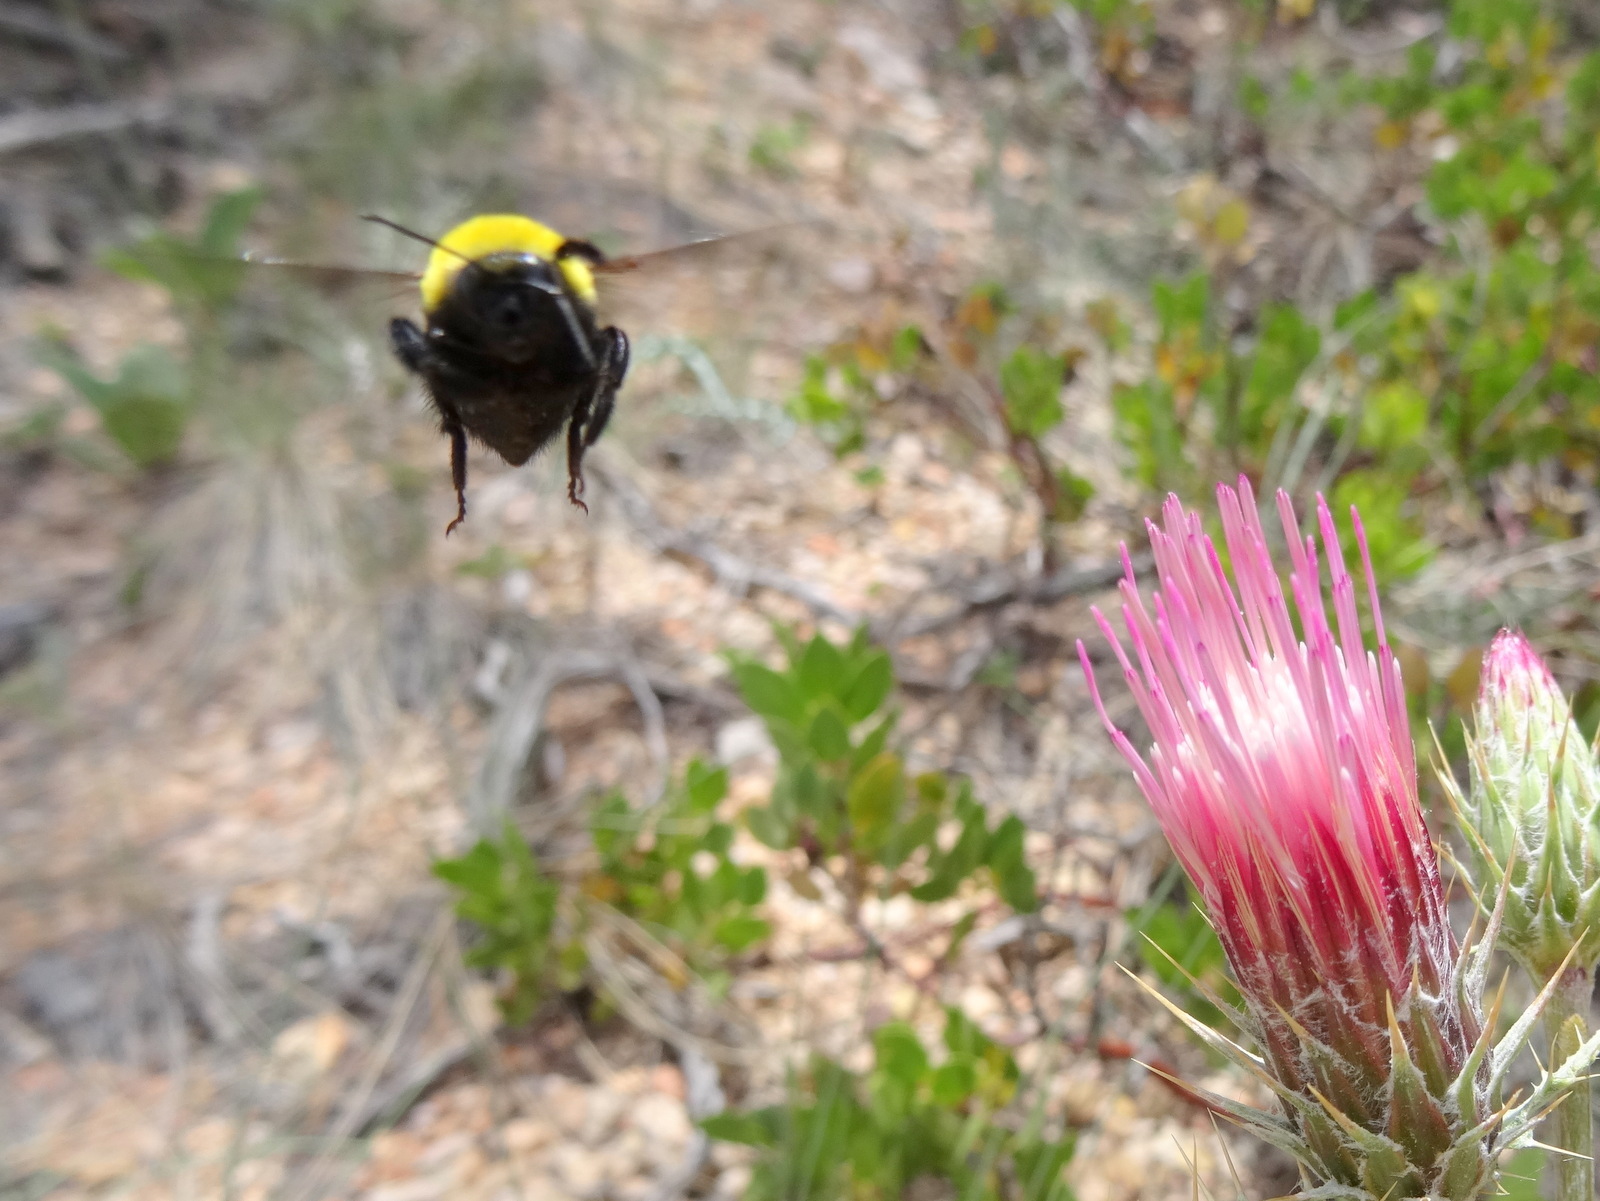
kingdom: Animalia
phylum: Arthropoda
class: Insecta
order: Hymenoptera
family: Apidae
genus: Bombus
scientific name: Bombus
